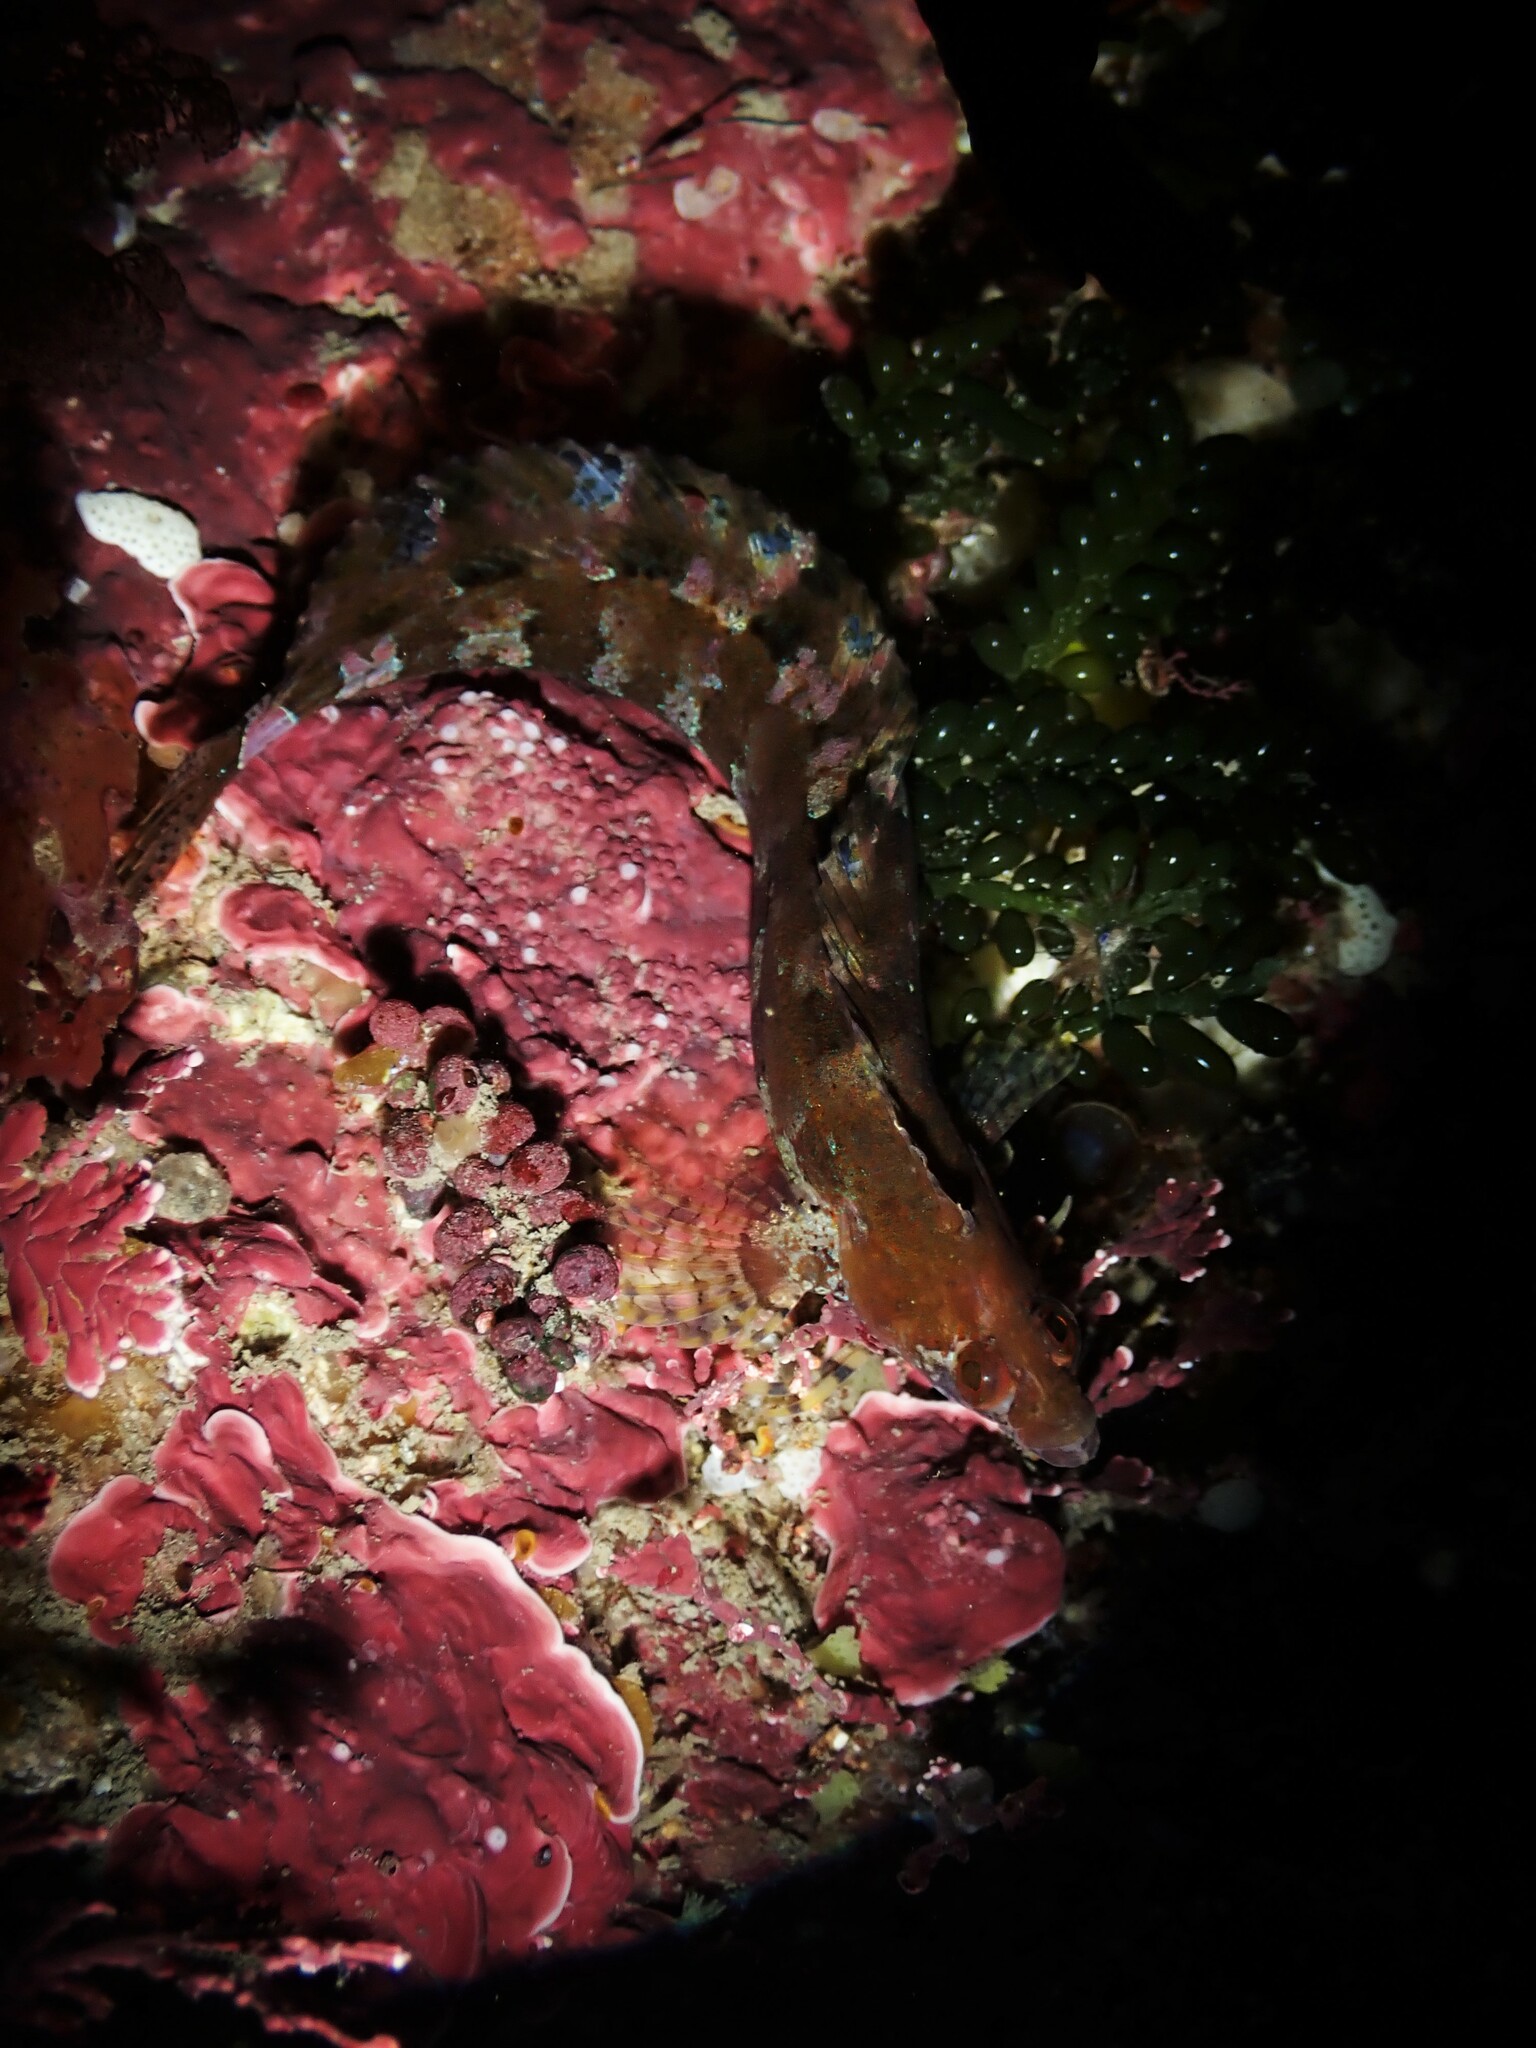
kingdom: Animalia
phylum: Chordata
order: Perciformes
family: Clinidae
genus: Ericentrus
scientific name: Ericentrus rubrus
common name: Orange clinid
